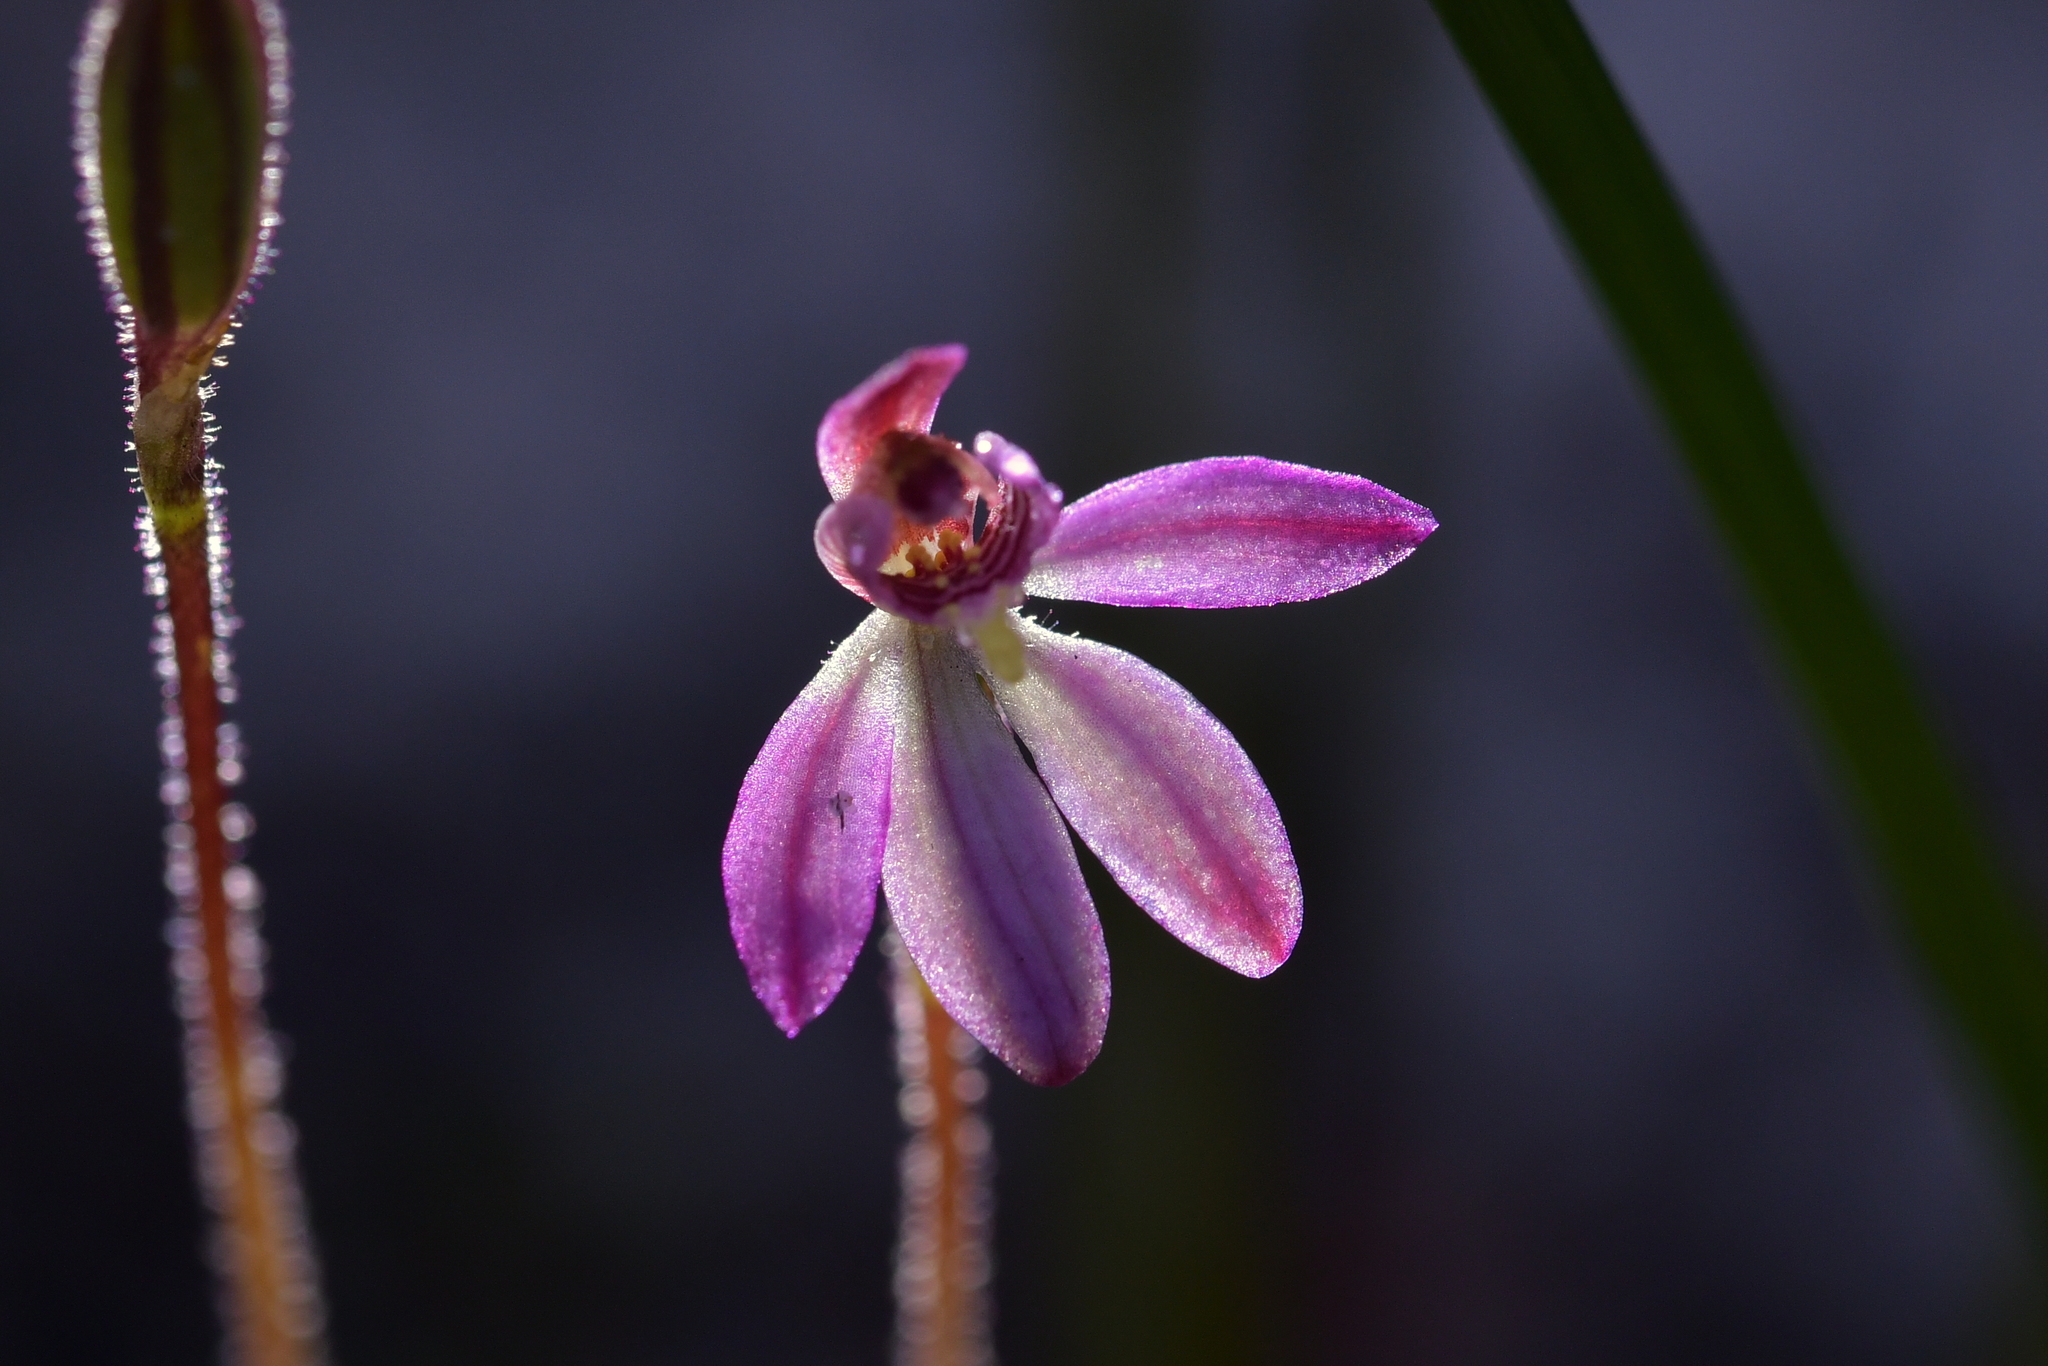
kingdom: Plantae
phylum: Tracheophyta
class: Liliopsida
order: Asparagales
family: Orchidaceae
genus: Caladenia
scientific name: Caladenia minor
